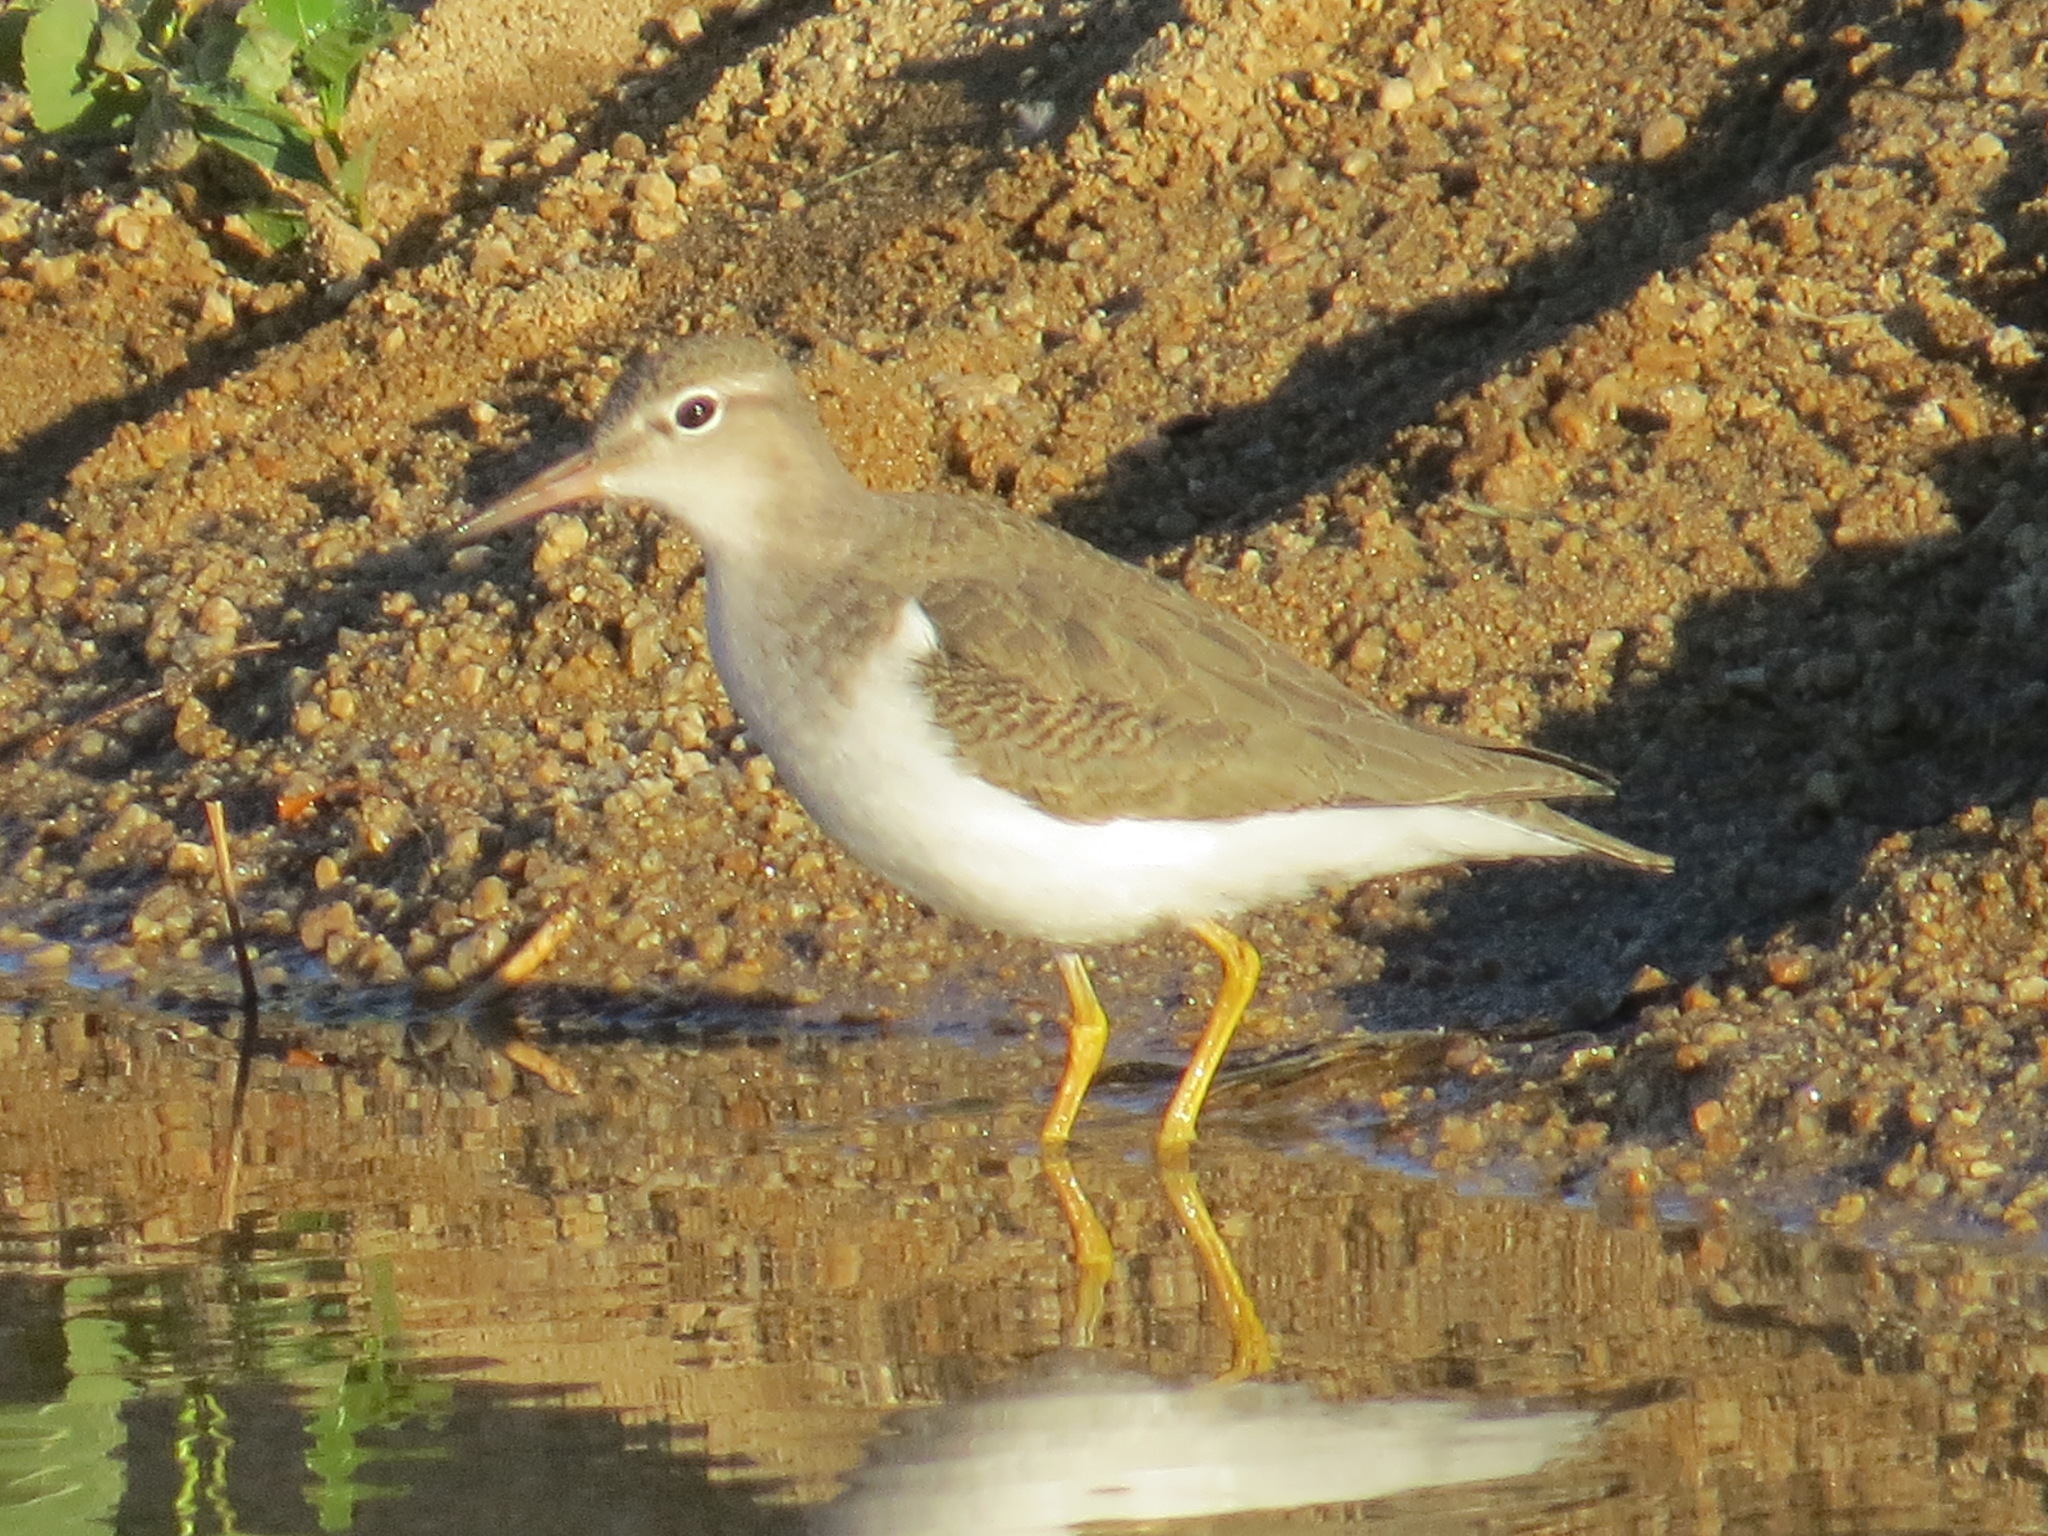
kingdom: Animalia
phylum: Chordata
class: Aves
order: Charadriiformes
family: Scolopacidae
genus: Actitis
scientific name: Actitis macularius
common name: Spotted sandpiper
